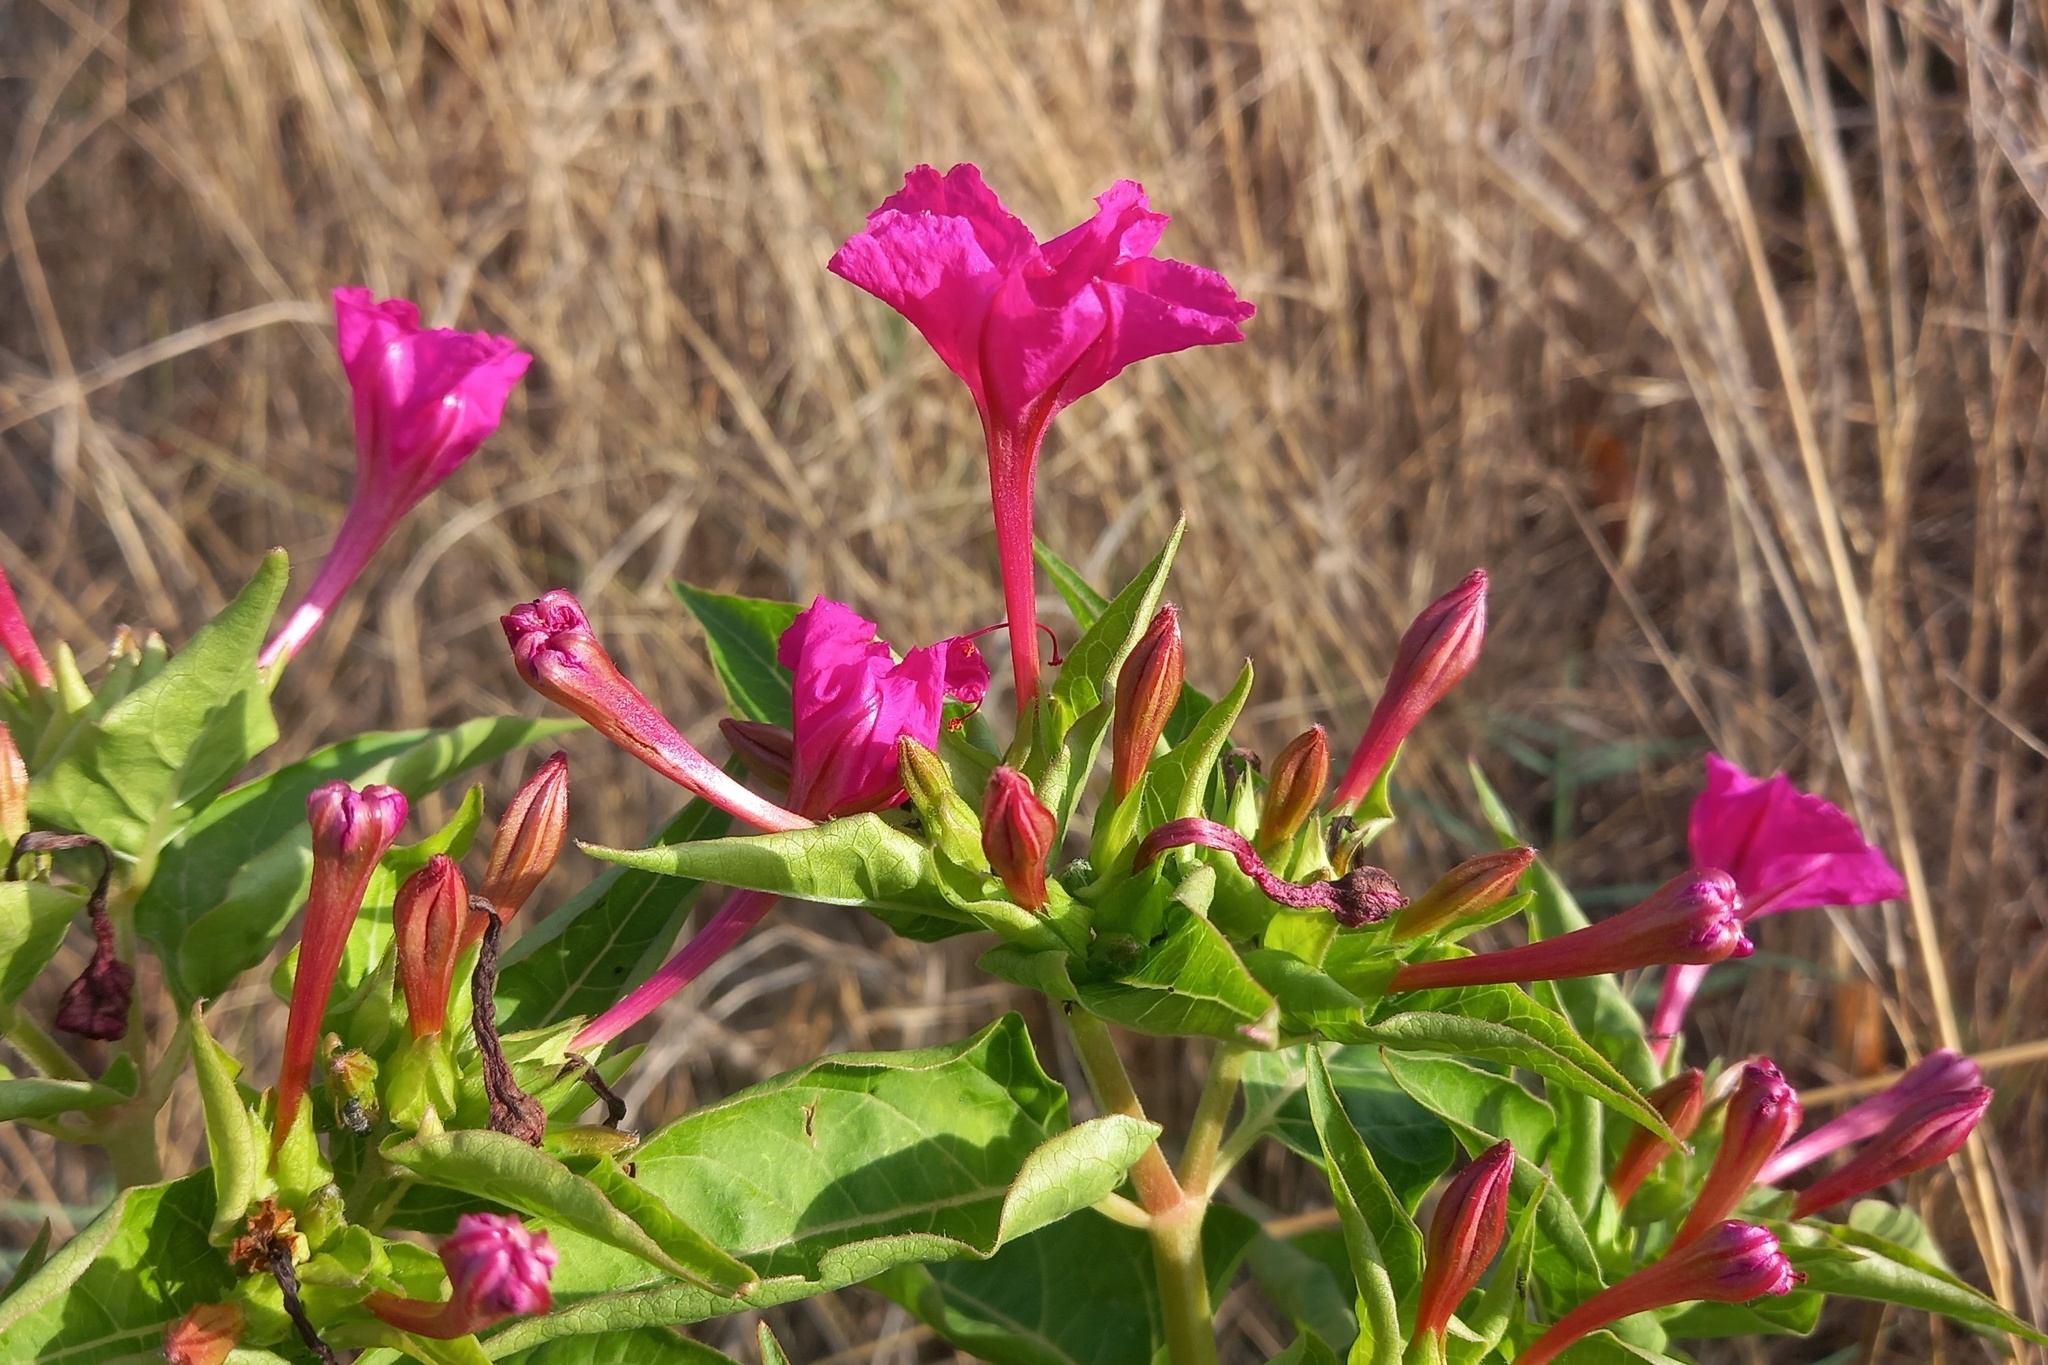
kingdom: Plantae
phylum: Tracheophyta
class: Magnoliopsida
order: Caryophyllales
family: Nyctaginaceae
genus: Mirabilis
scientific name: Mirabilis jalapa
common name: Marvel-of-peru
